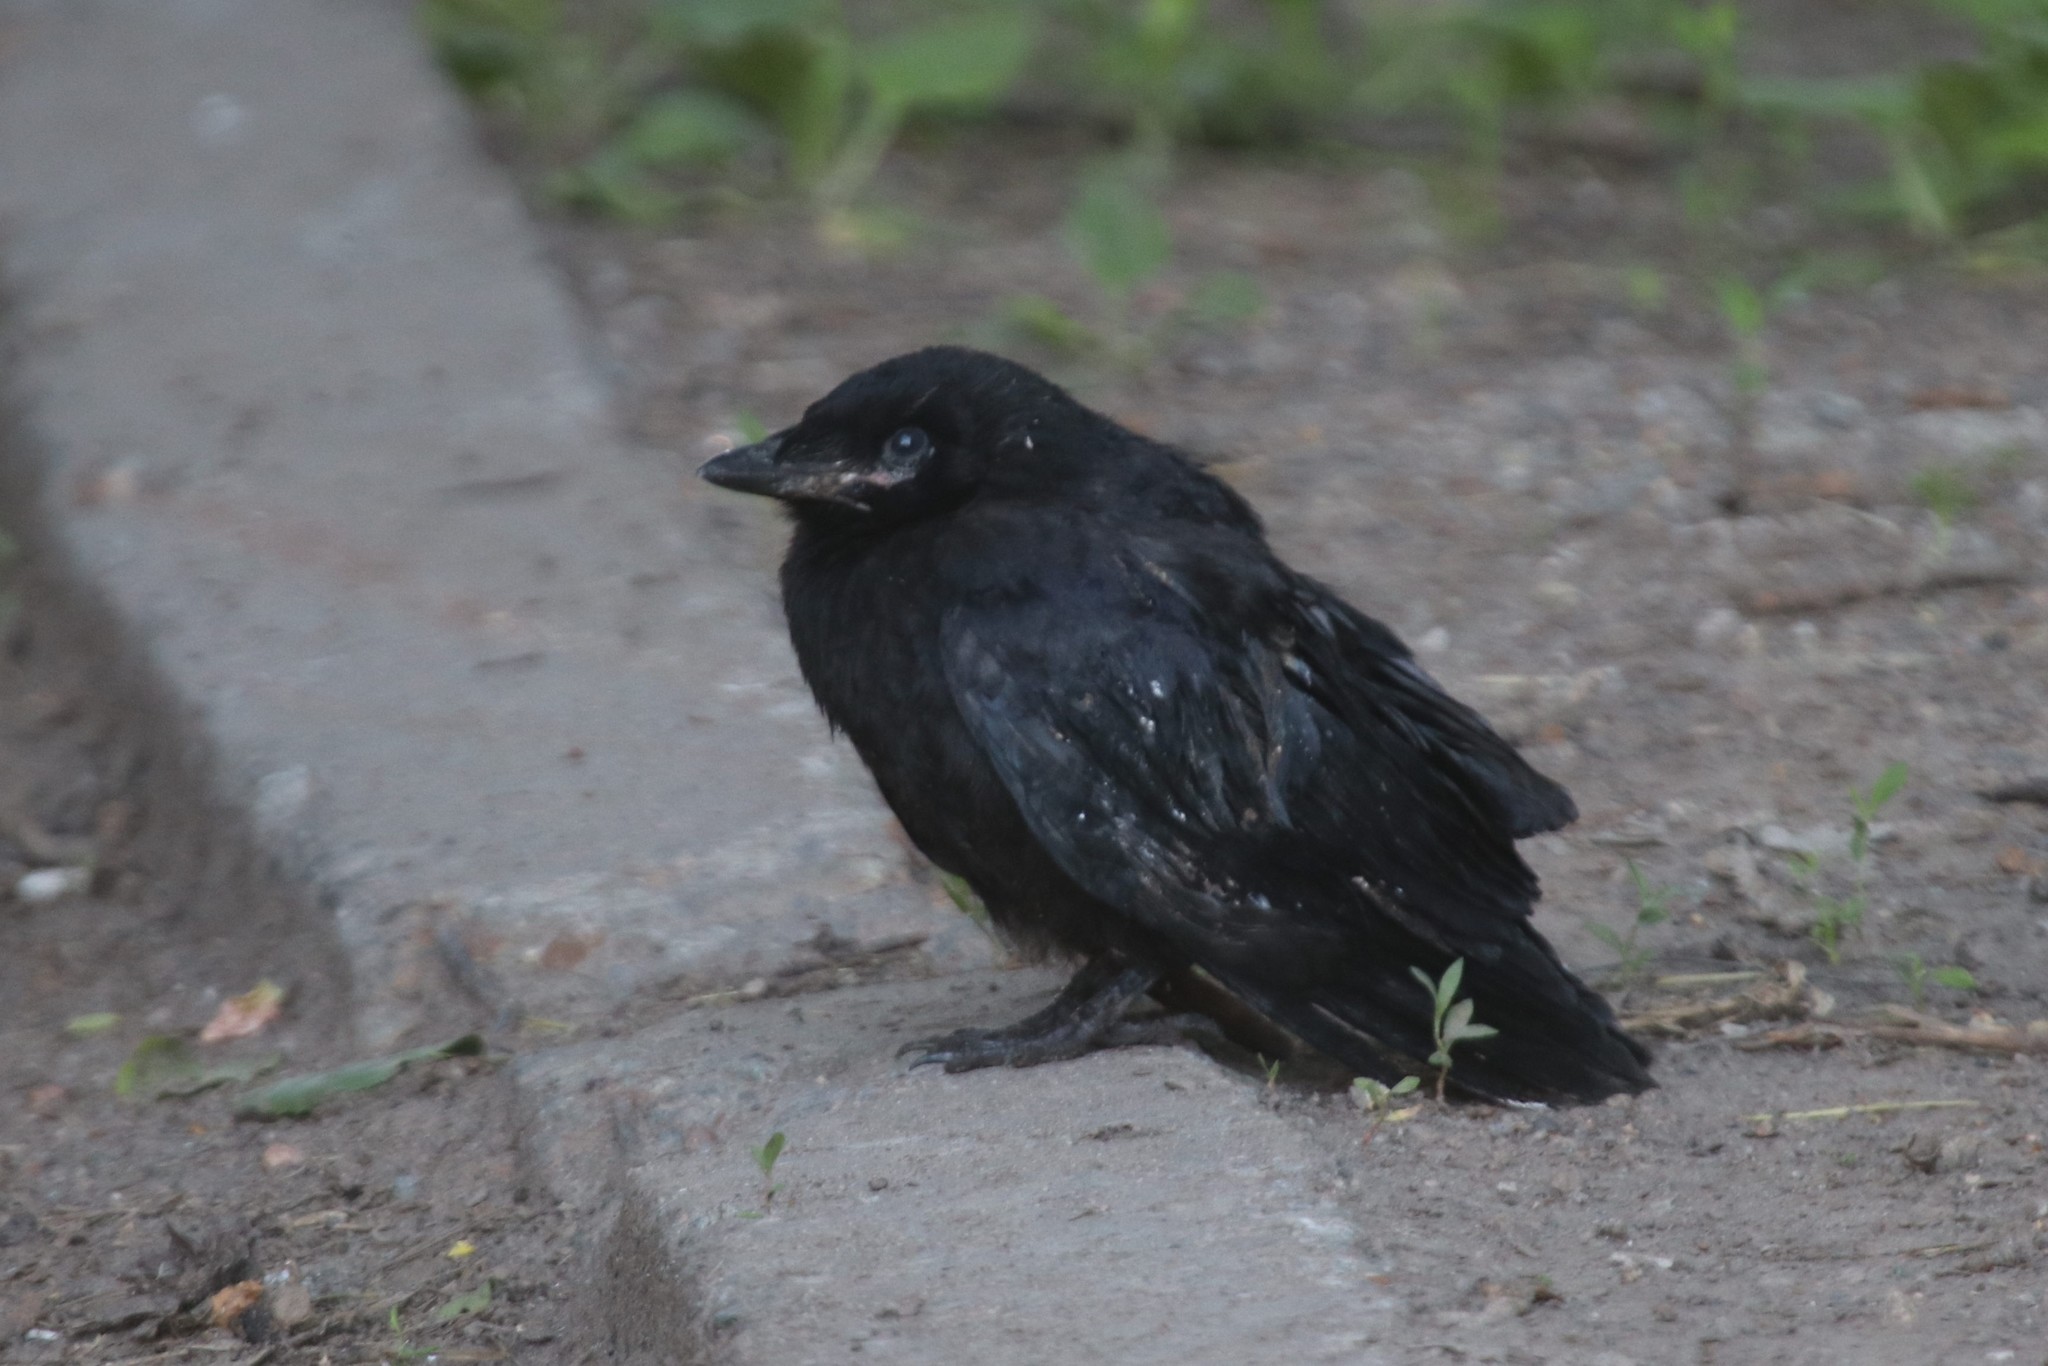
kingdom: Animalia
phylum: Chordata
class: Aves
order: Passeriformes
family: Corvidae
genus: Corvus
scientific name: Corvus frugilegus
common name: Rook
